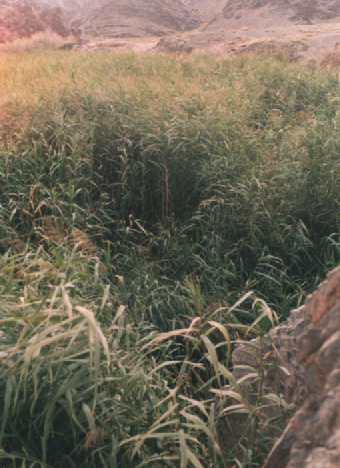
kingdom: Plantae
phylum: Tracheophyta
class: Liliopsida
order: Poales
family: Poaceae
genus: Phragmites
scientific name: Phragmites australis
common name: Common reed
